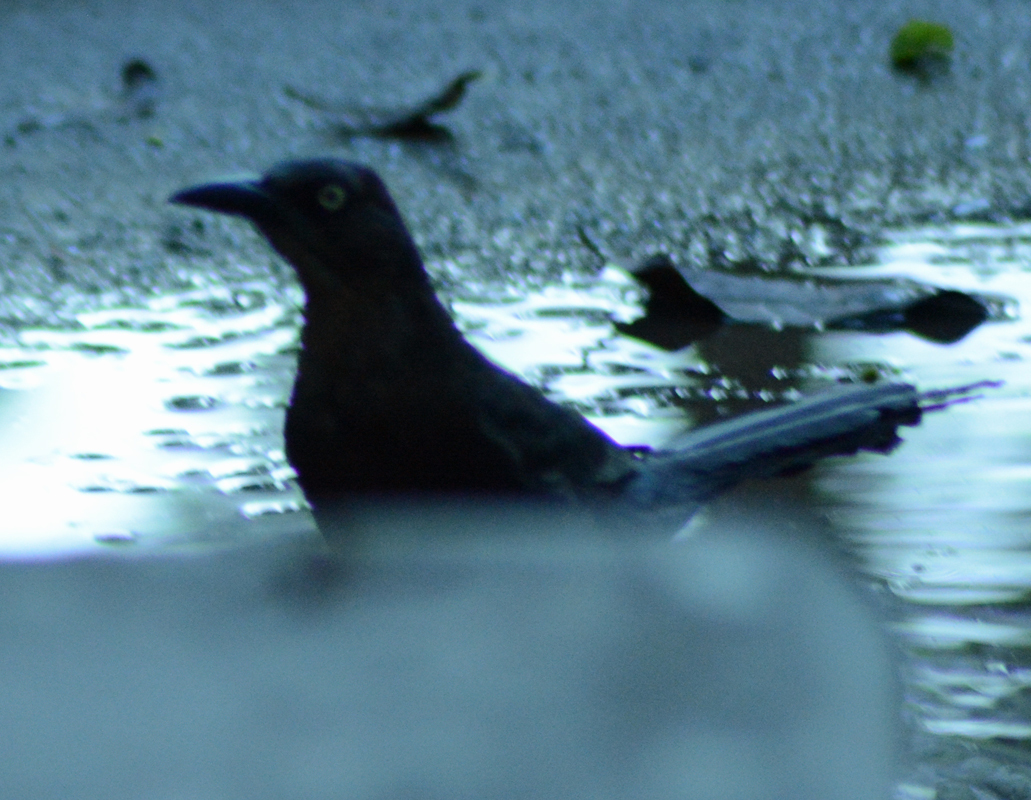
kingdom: Animalia
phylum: Chordata
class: Aves
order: Passeriformes
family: Icteridae
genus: Quiscalus
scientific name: Quiscalus mexicanus
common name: Great-tailed grackle
